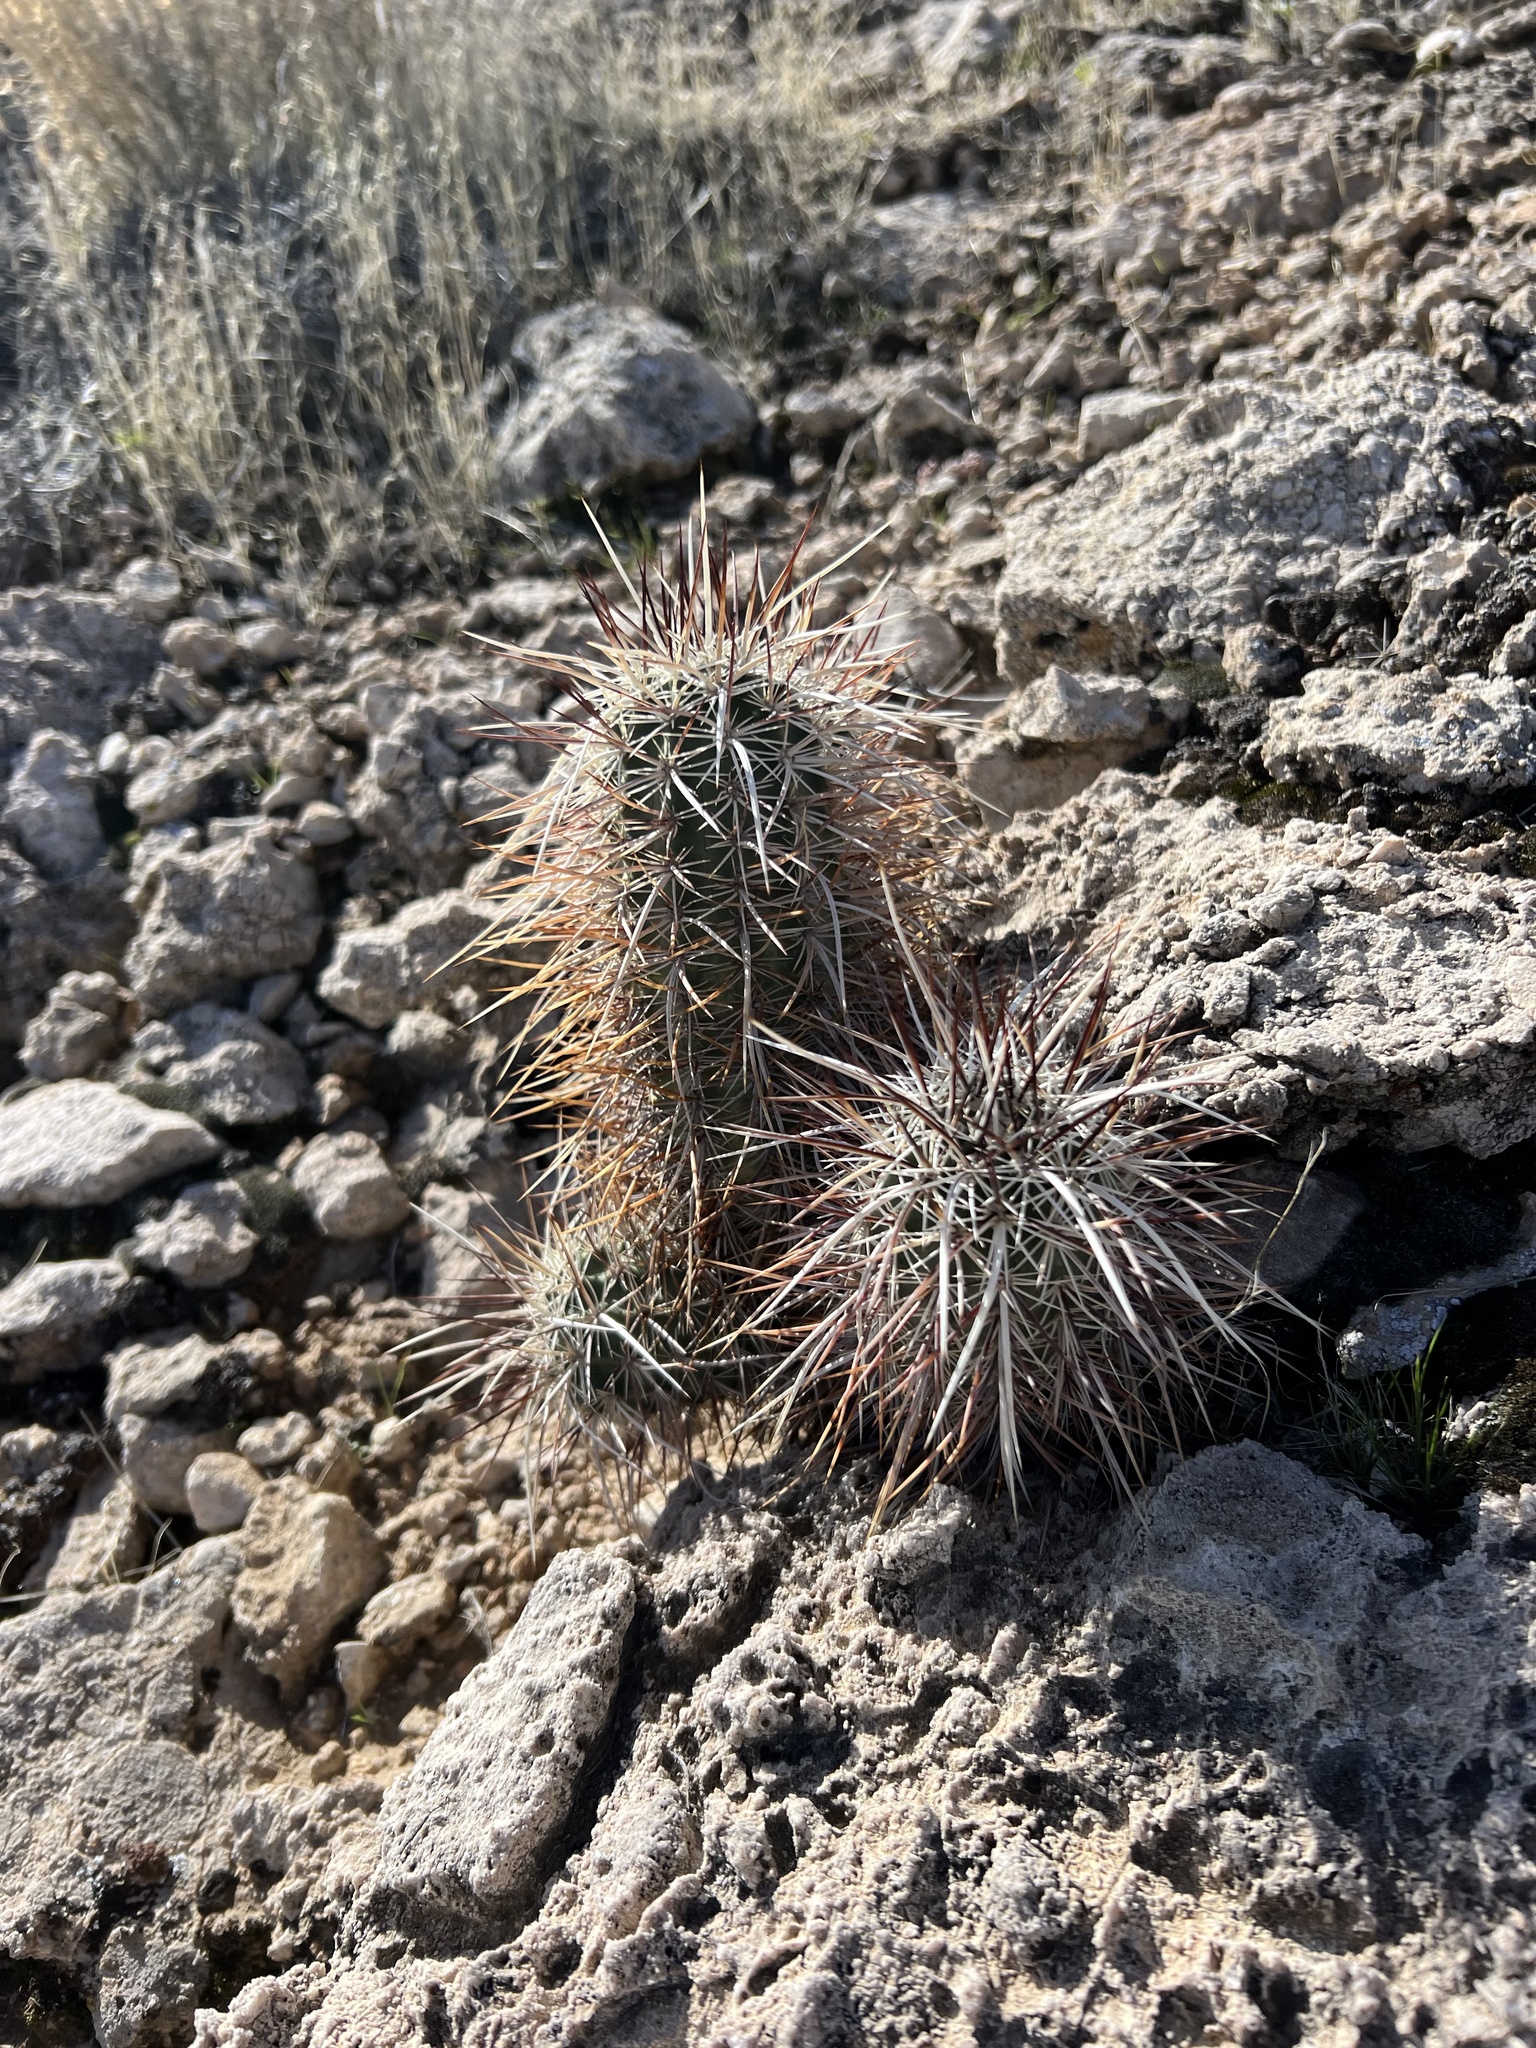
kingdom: Plantae
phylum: Tracheophyta
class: Magnoliopsida
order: Caryophyllales
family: Cactaceae
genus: Echinocereus
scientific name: Echinocereus engelmannii
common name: Engelmann's hedgehog cactus
